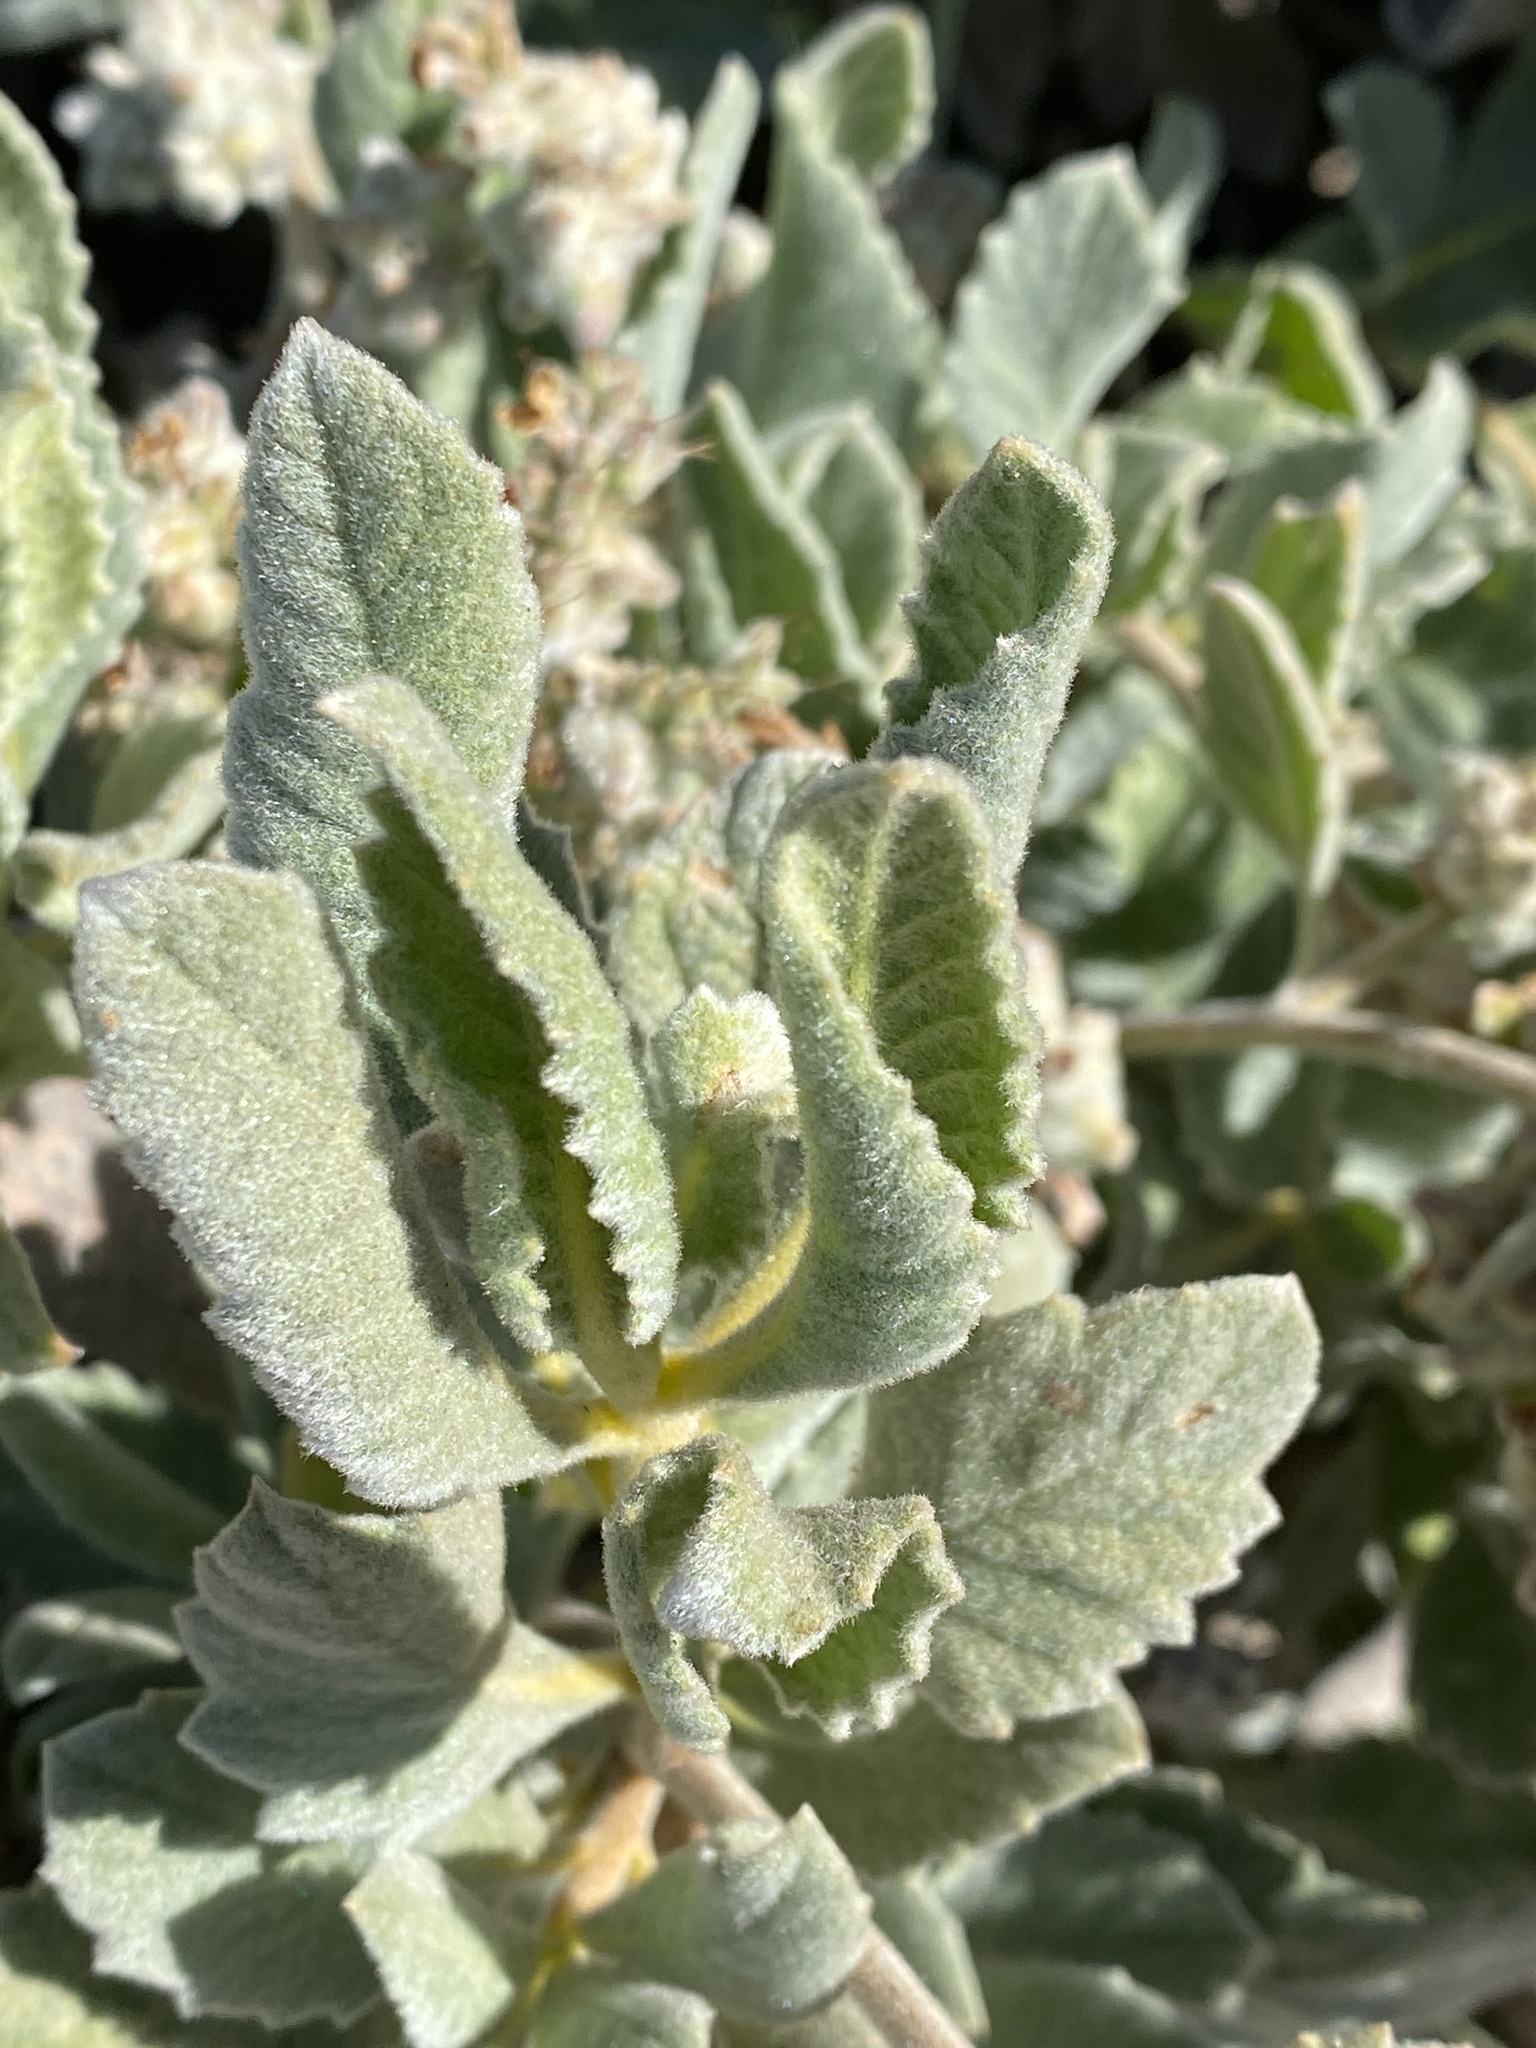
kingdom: Plantae
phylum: Tracheophyta
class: Magnoliopsida
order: Boraginales
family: Namaceae
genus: Eriodictyon
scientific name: Eriodictyon crassifolium
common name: Thick-leaf yerba-santa
